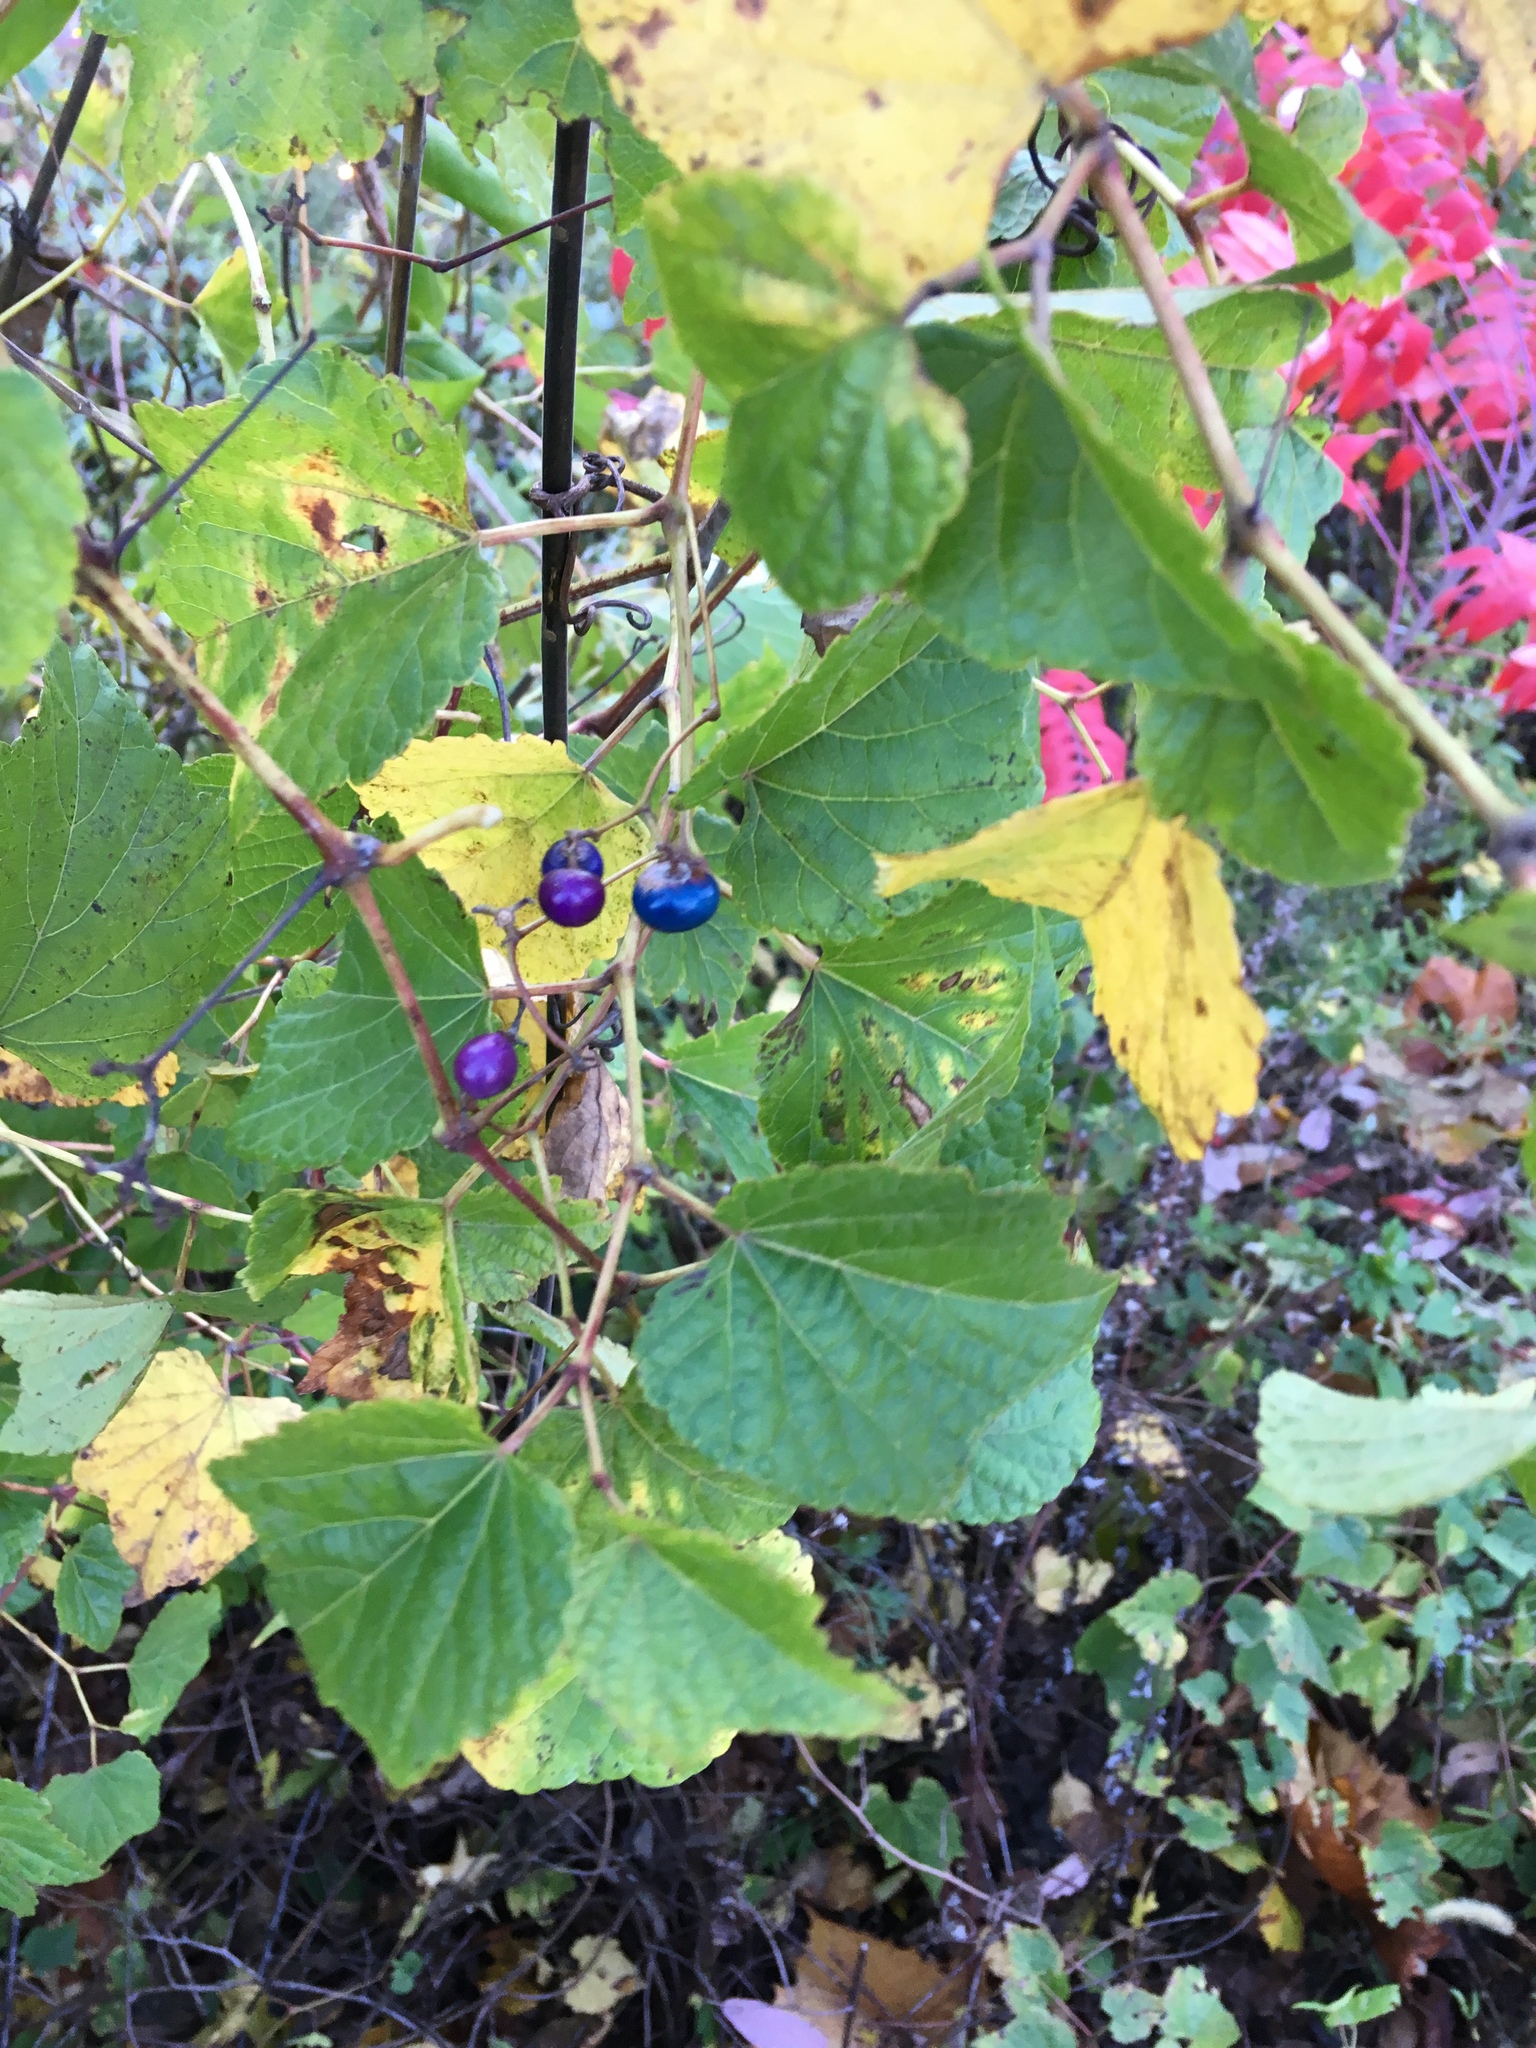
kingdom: Plantae
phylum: Tracheophyta
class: Magnoliopsida
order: Vitales
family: Vitaceae
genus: Ampelopsis
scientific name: Ampelopsis glandulosa
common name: Amur peppervine
